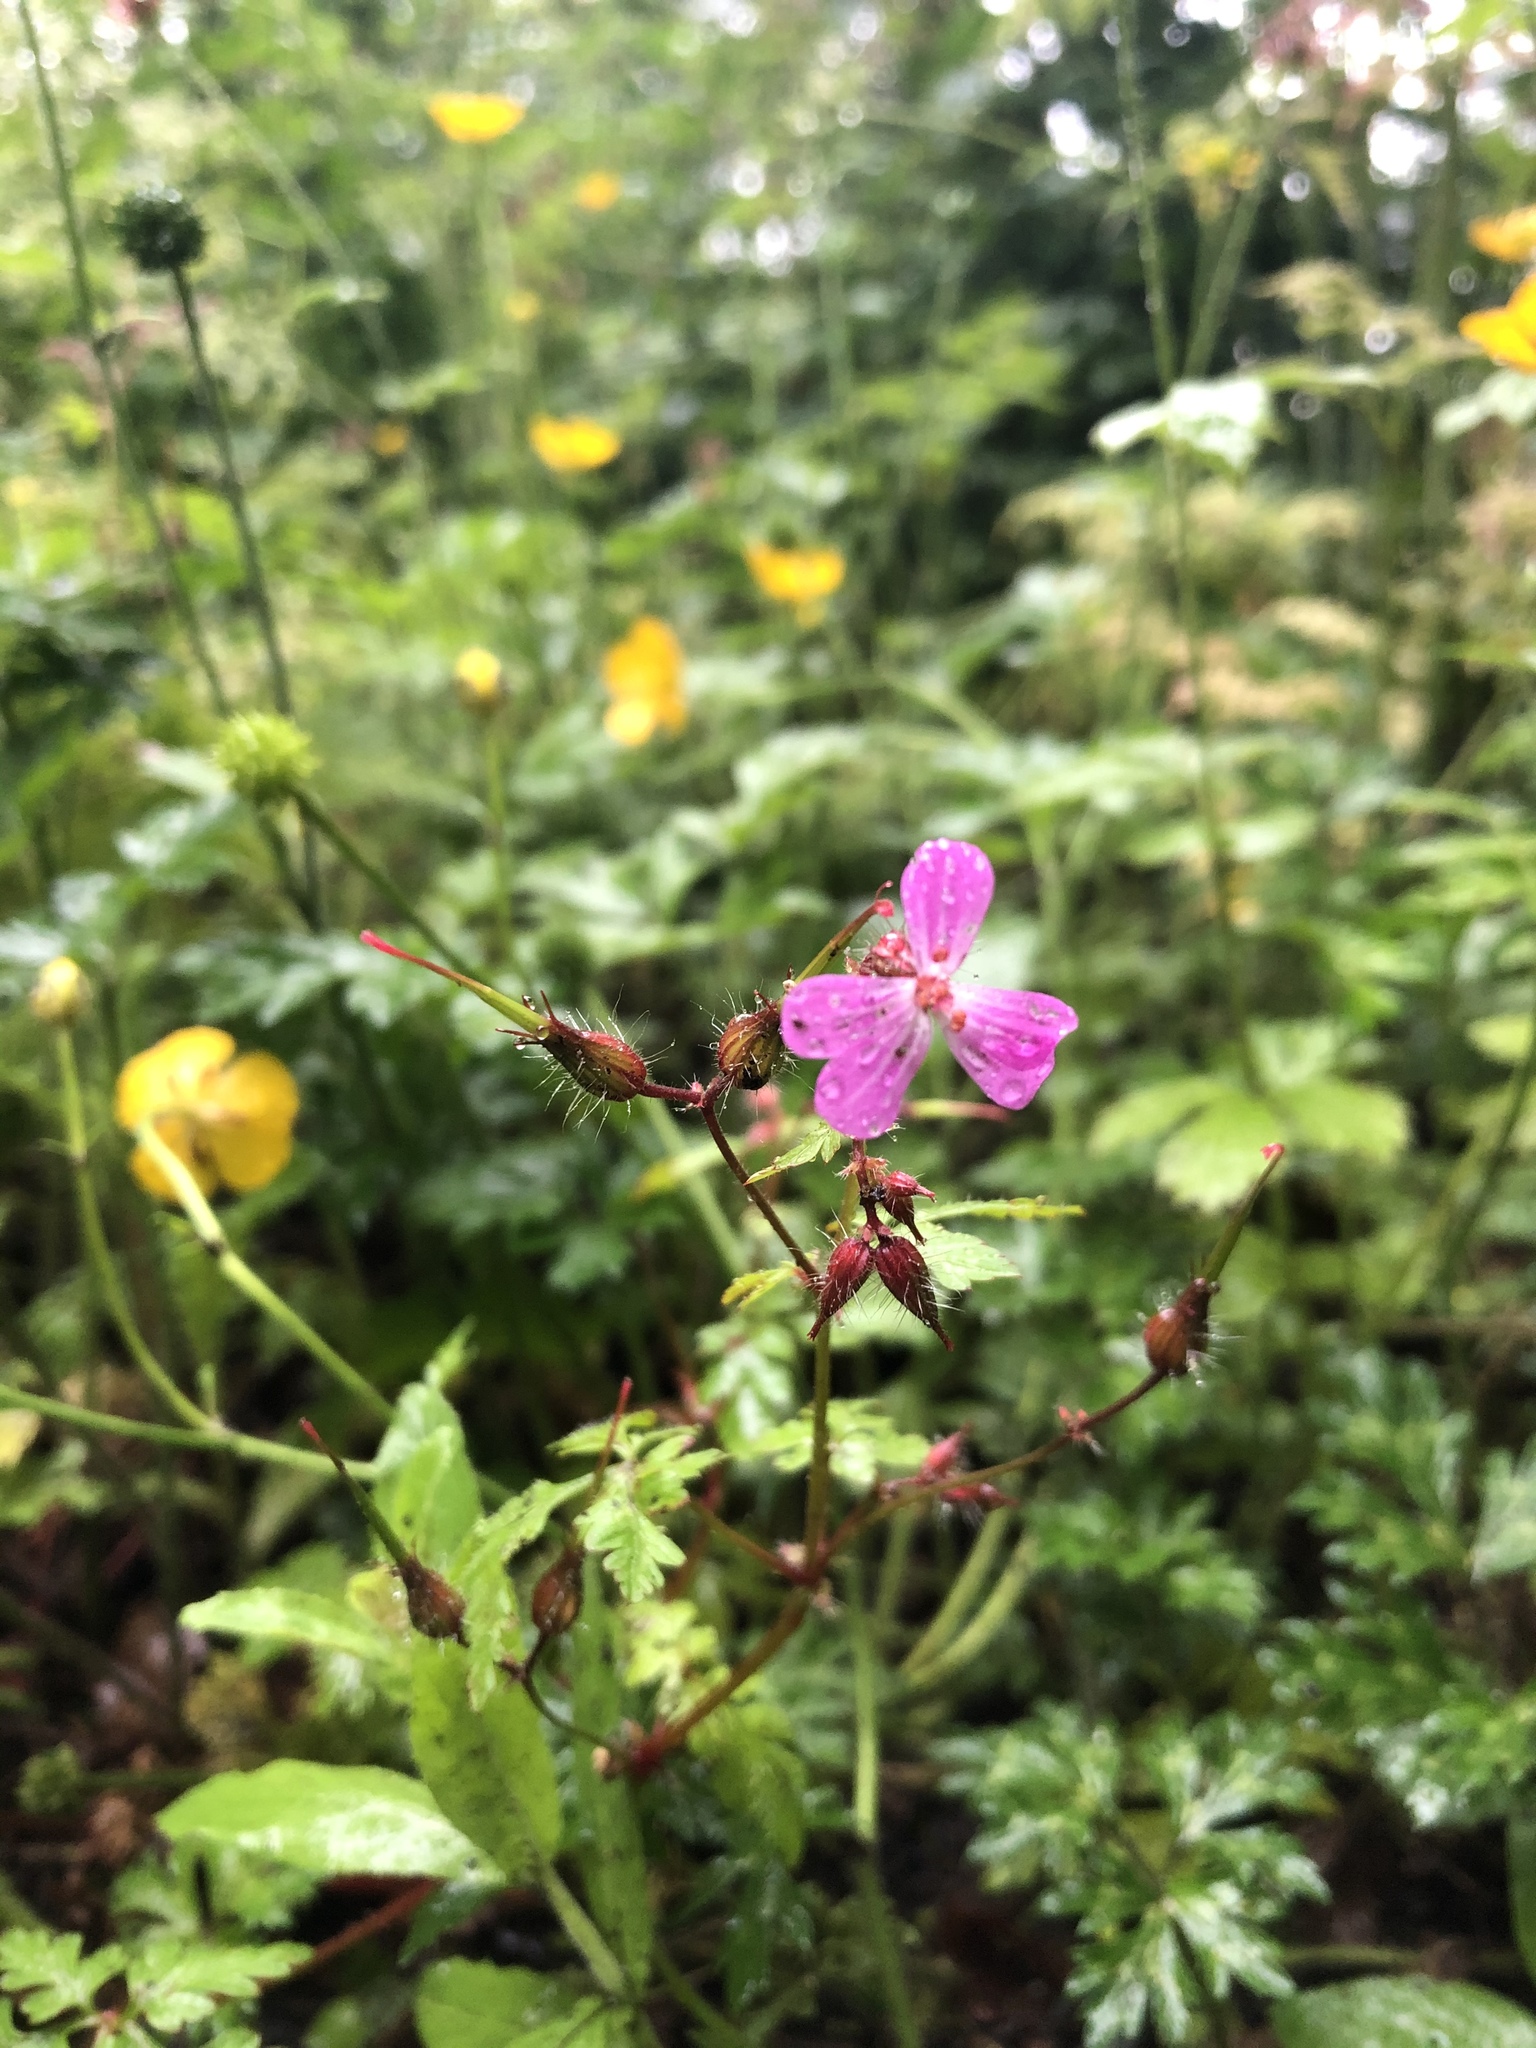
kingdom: Plantae
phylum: Tracheophyta
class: Magnoliopsida
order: Geraniales
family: Geraniaceae
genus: Geranium
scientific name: Geranium robertianum
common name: Herb-robert
